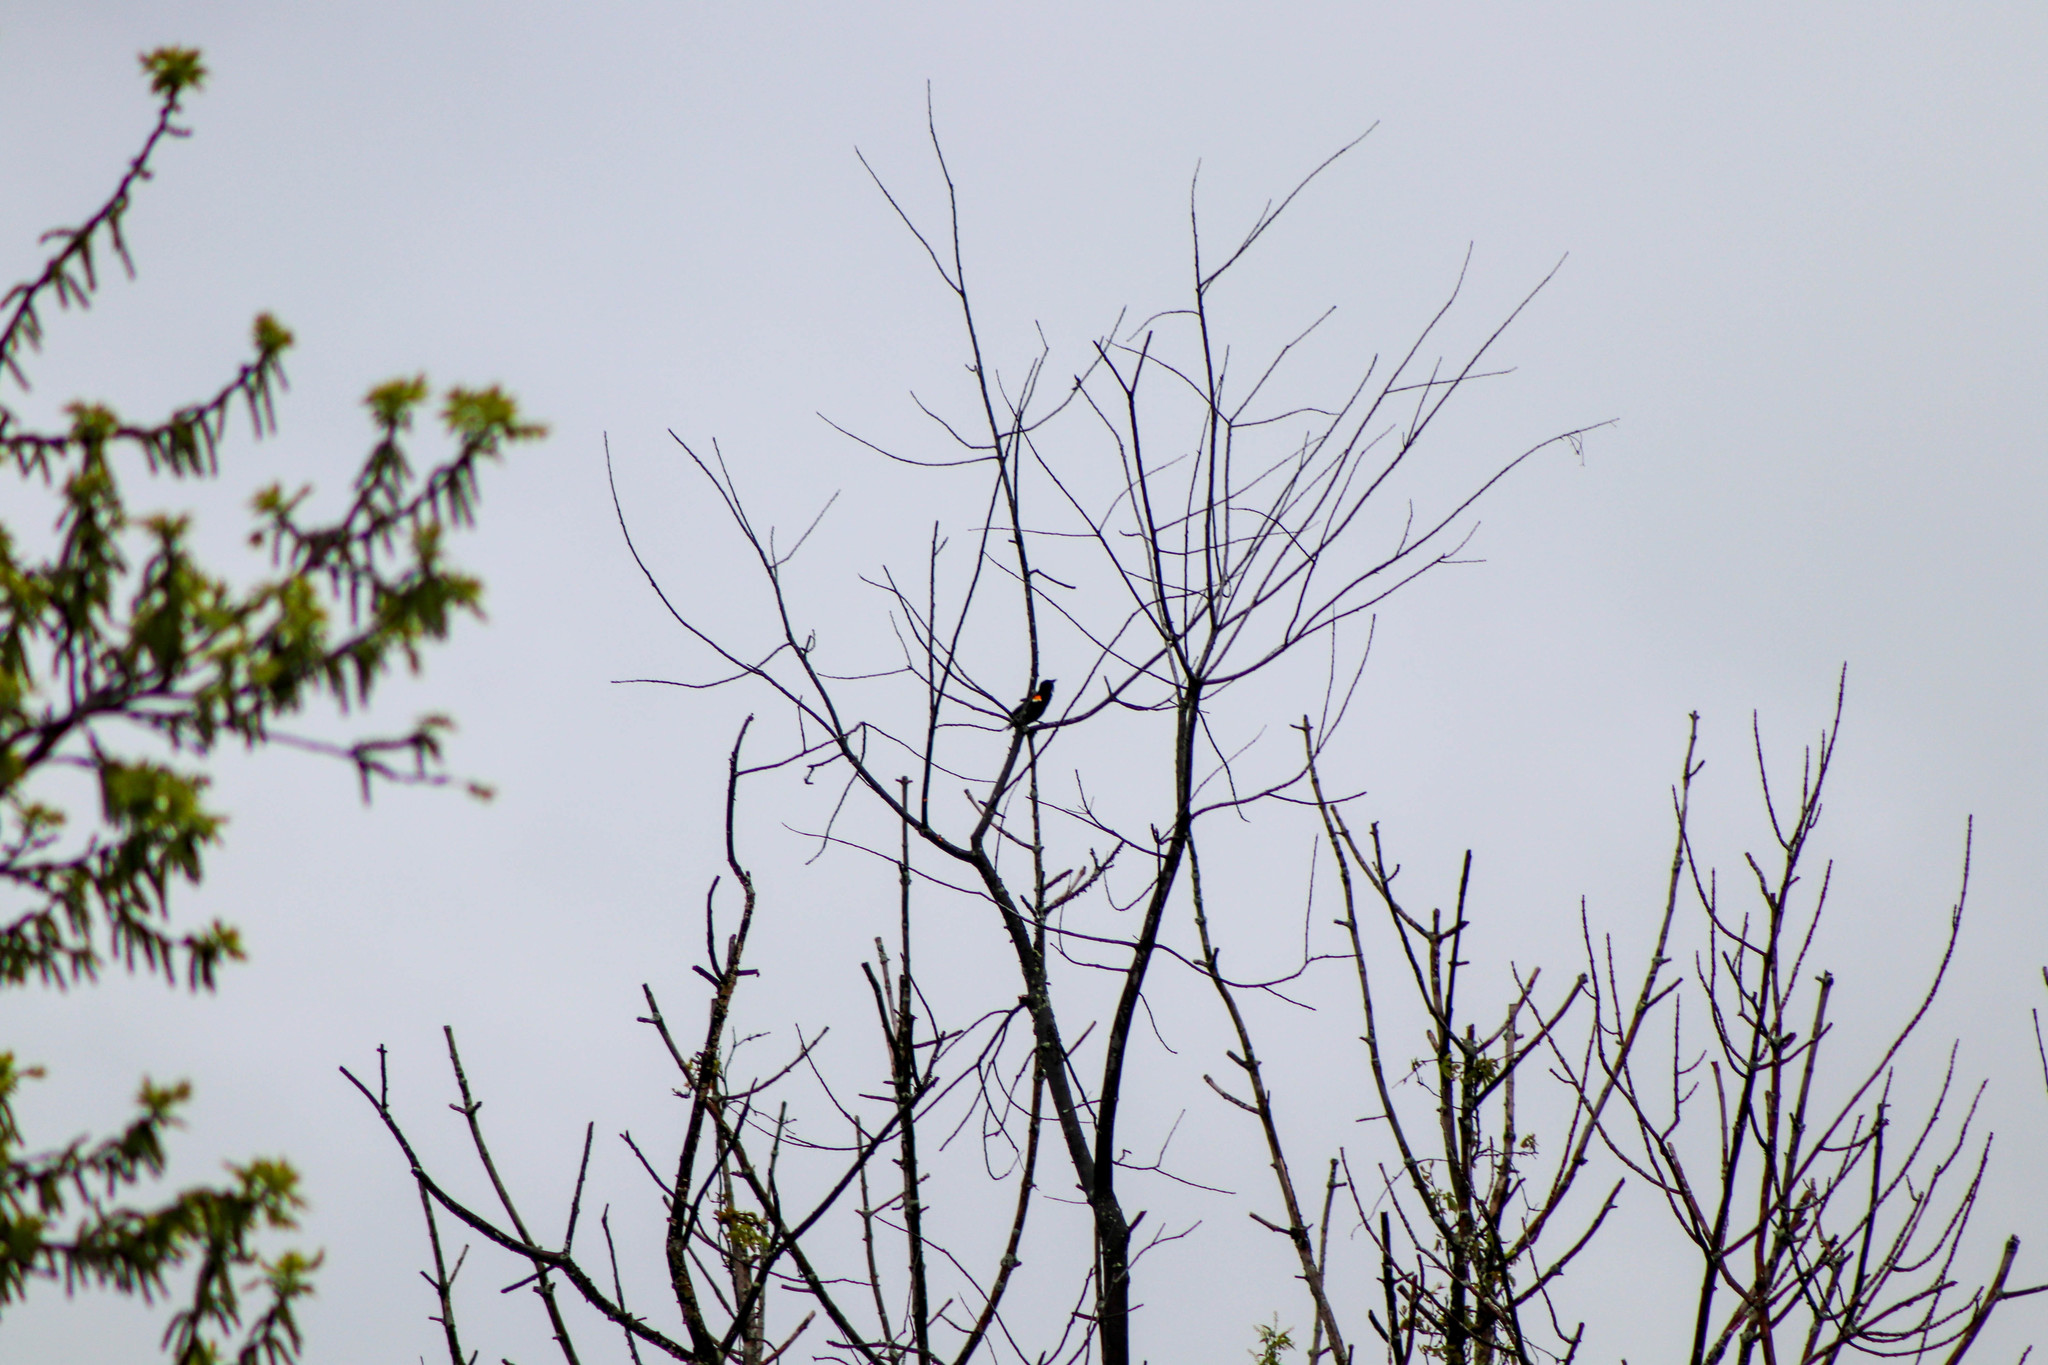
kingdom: Animalia
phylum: Chordata
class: Aves
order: Passeriformes
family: Icteridae
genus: Agelaius
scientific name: Agelaius phoeniceus
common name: Red-winged blackbird
